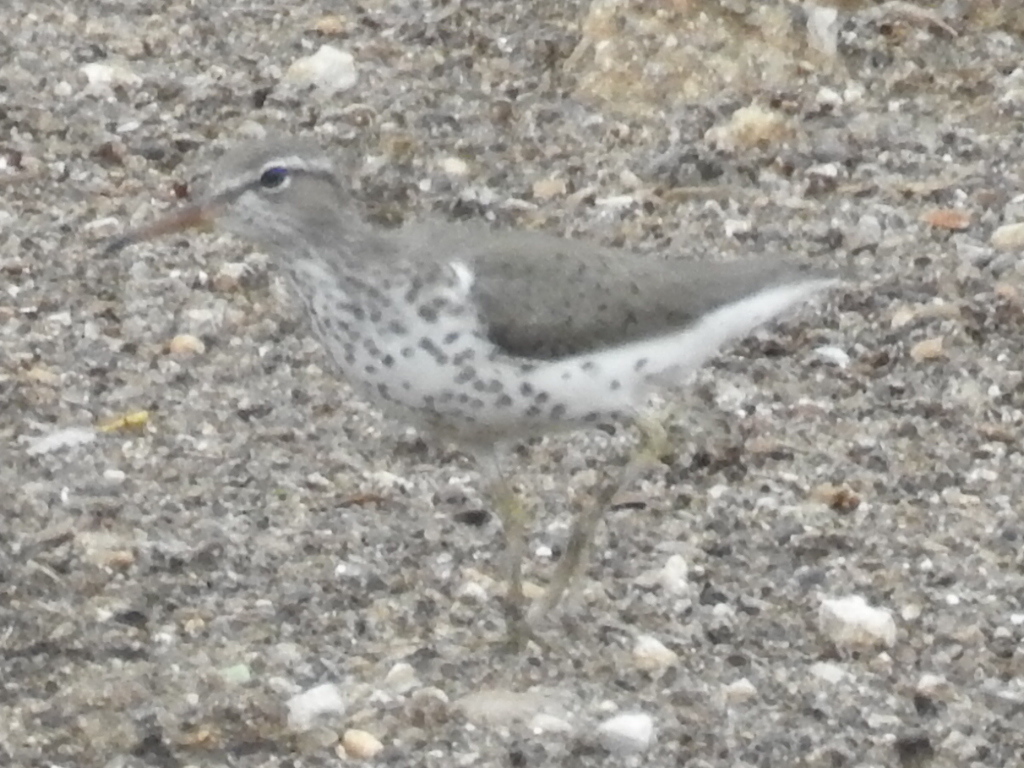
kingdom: Animalia
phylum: Chordata
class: Aves
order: Charadriiformes
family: Scolopacidae
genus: Actitis
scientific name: Actitis macularius
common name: Spotted sandpiper
